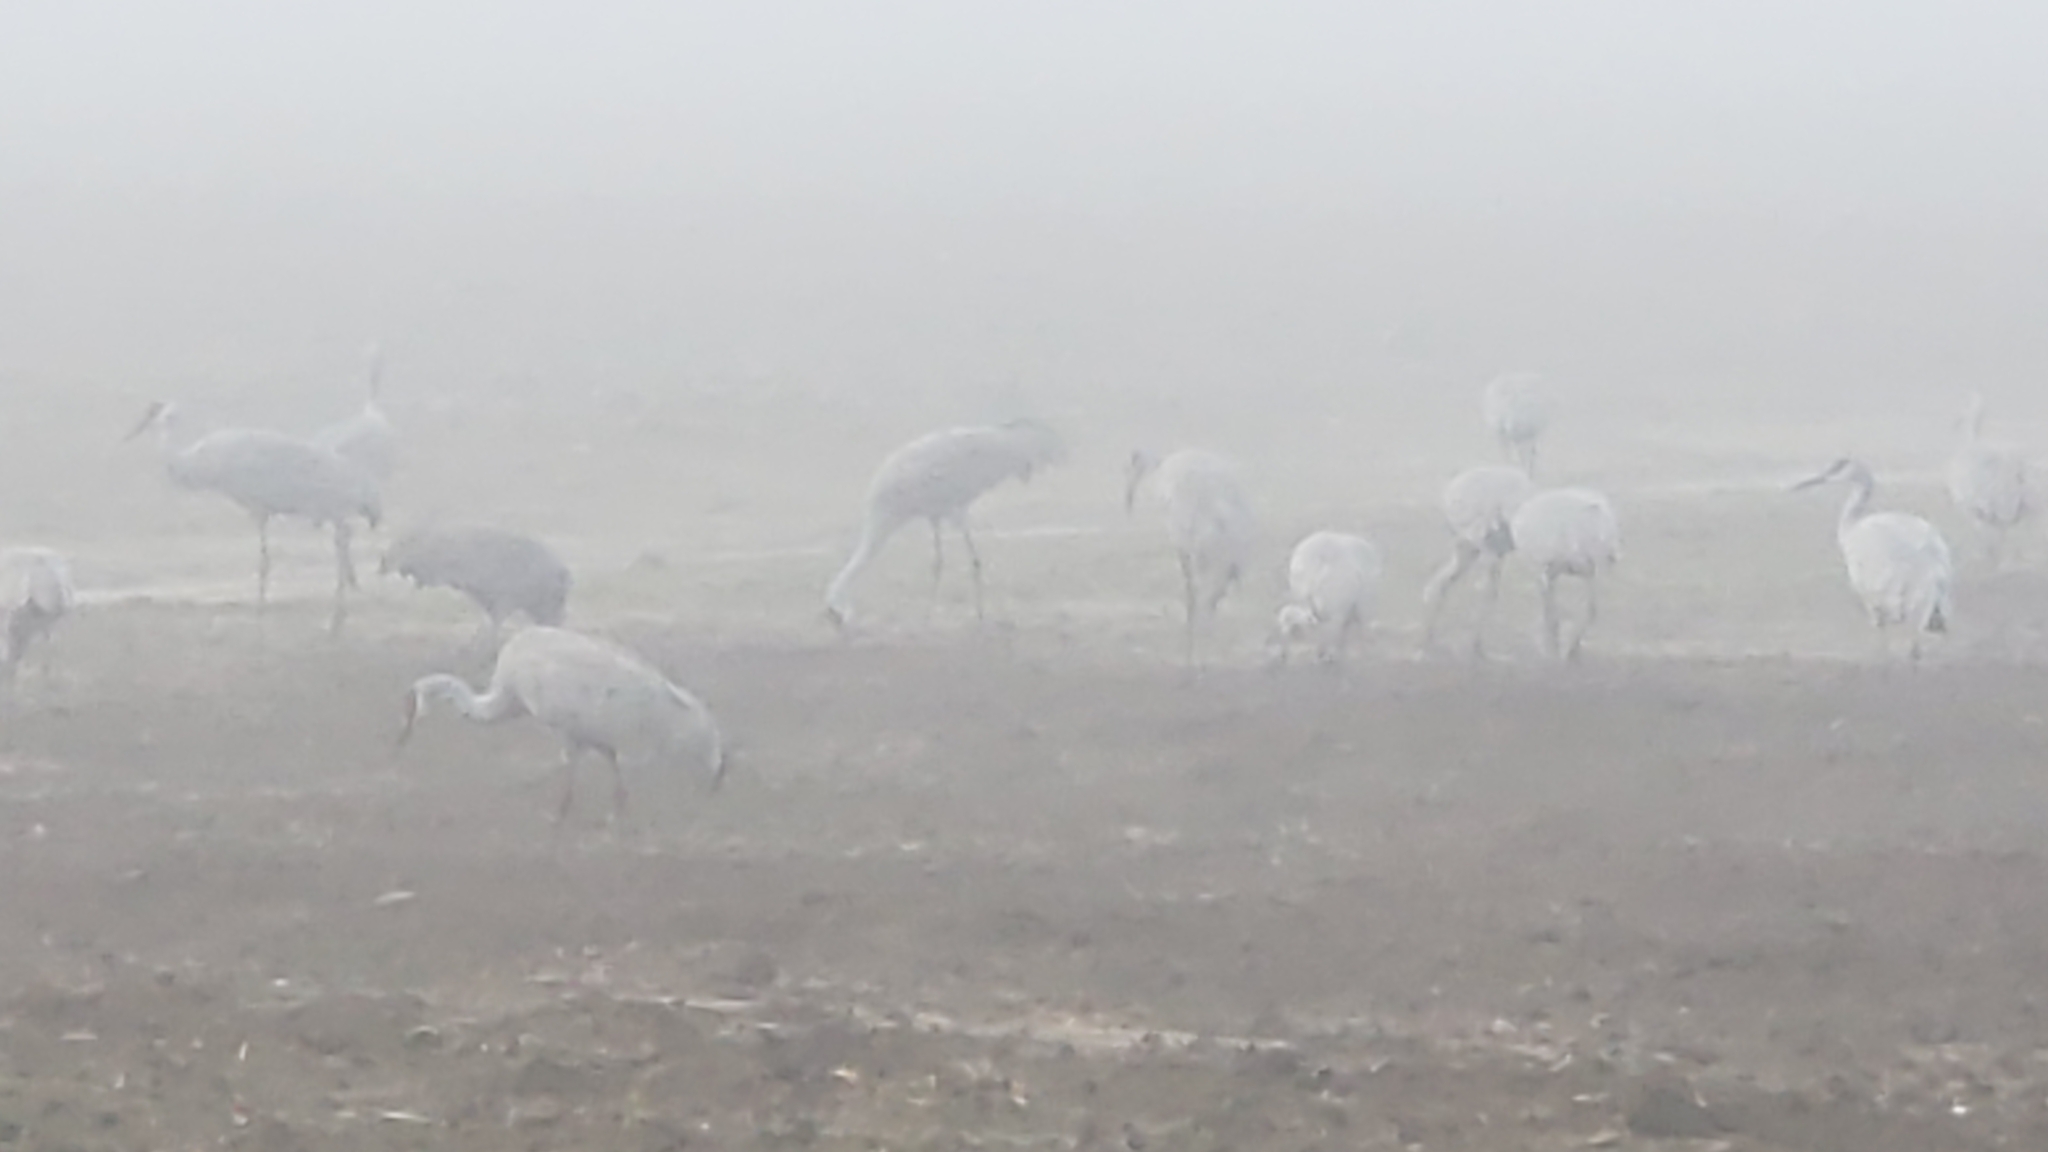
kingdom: Animalia
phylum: Chordata
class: Aves
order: Gruiformes
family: Gruidae
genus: Grus
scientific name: Grus canadensis
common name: Sandhill crane
